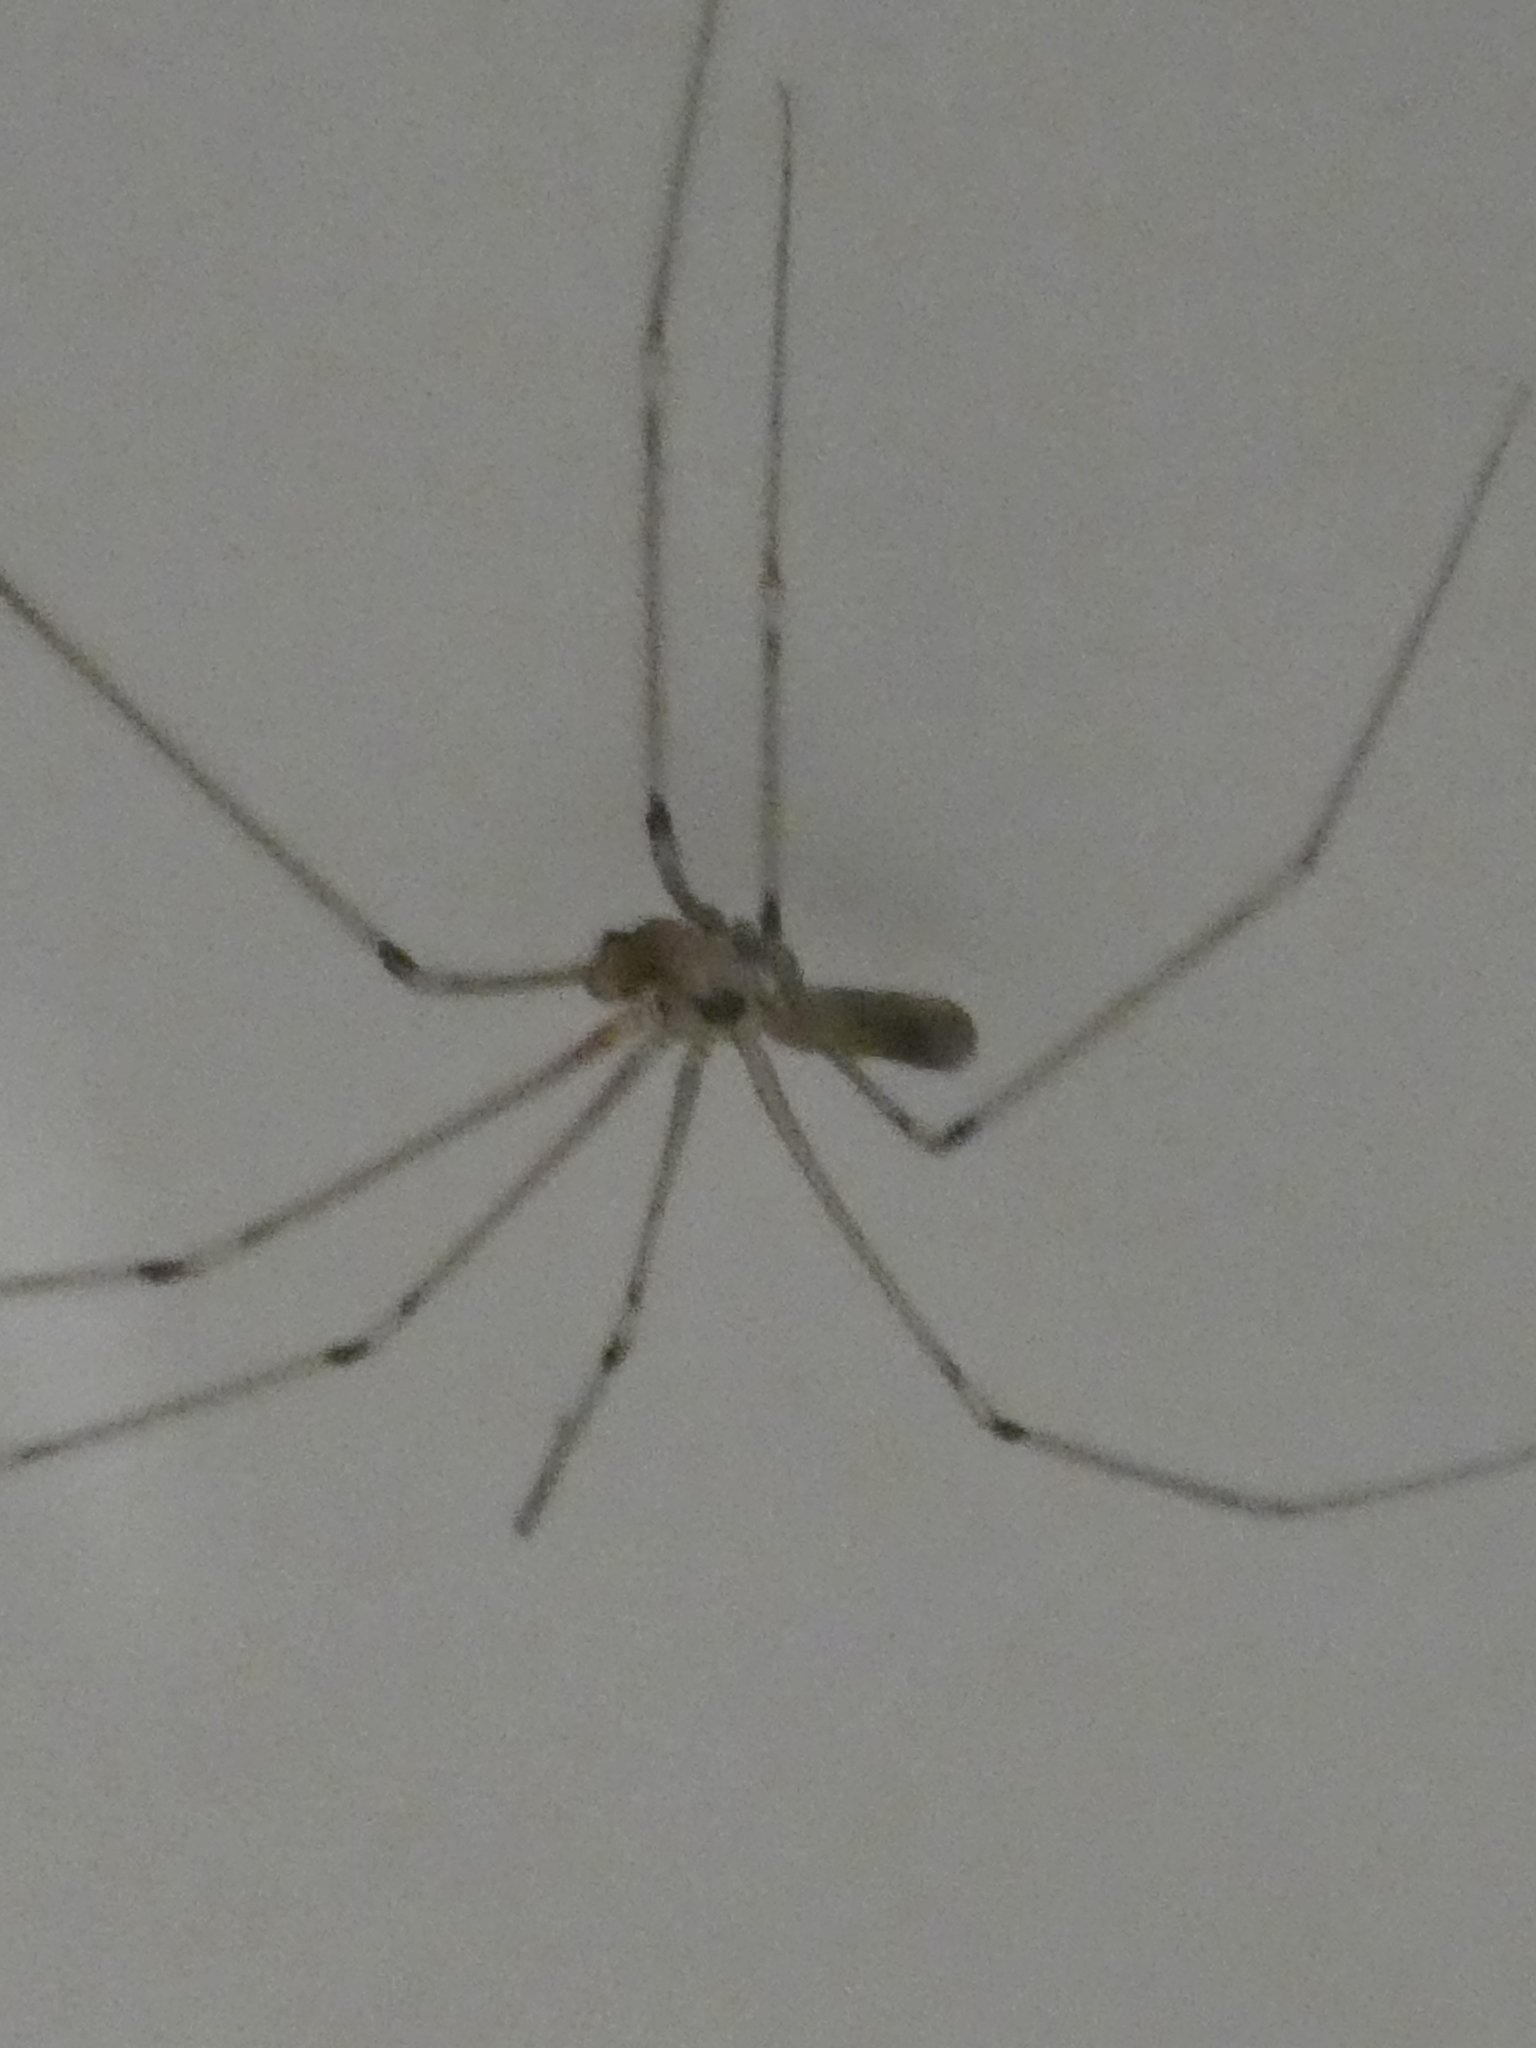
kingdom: Animalia
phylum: Arthropoda
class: Arachnida
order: Araneae
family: Pholcidae
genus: Pholcus
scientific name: Pholcus phalangioides
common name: Longbodied cellar spider
